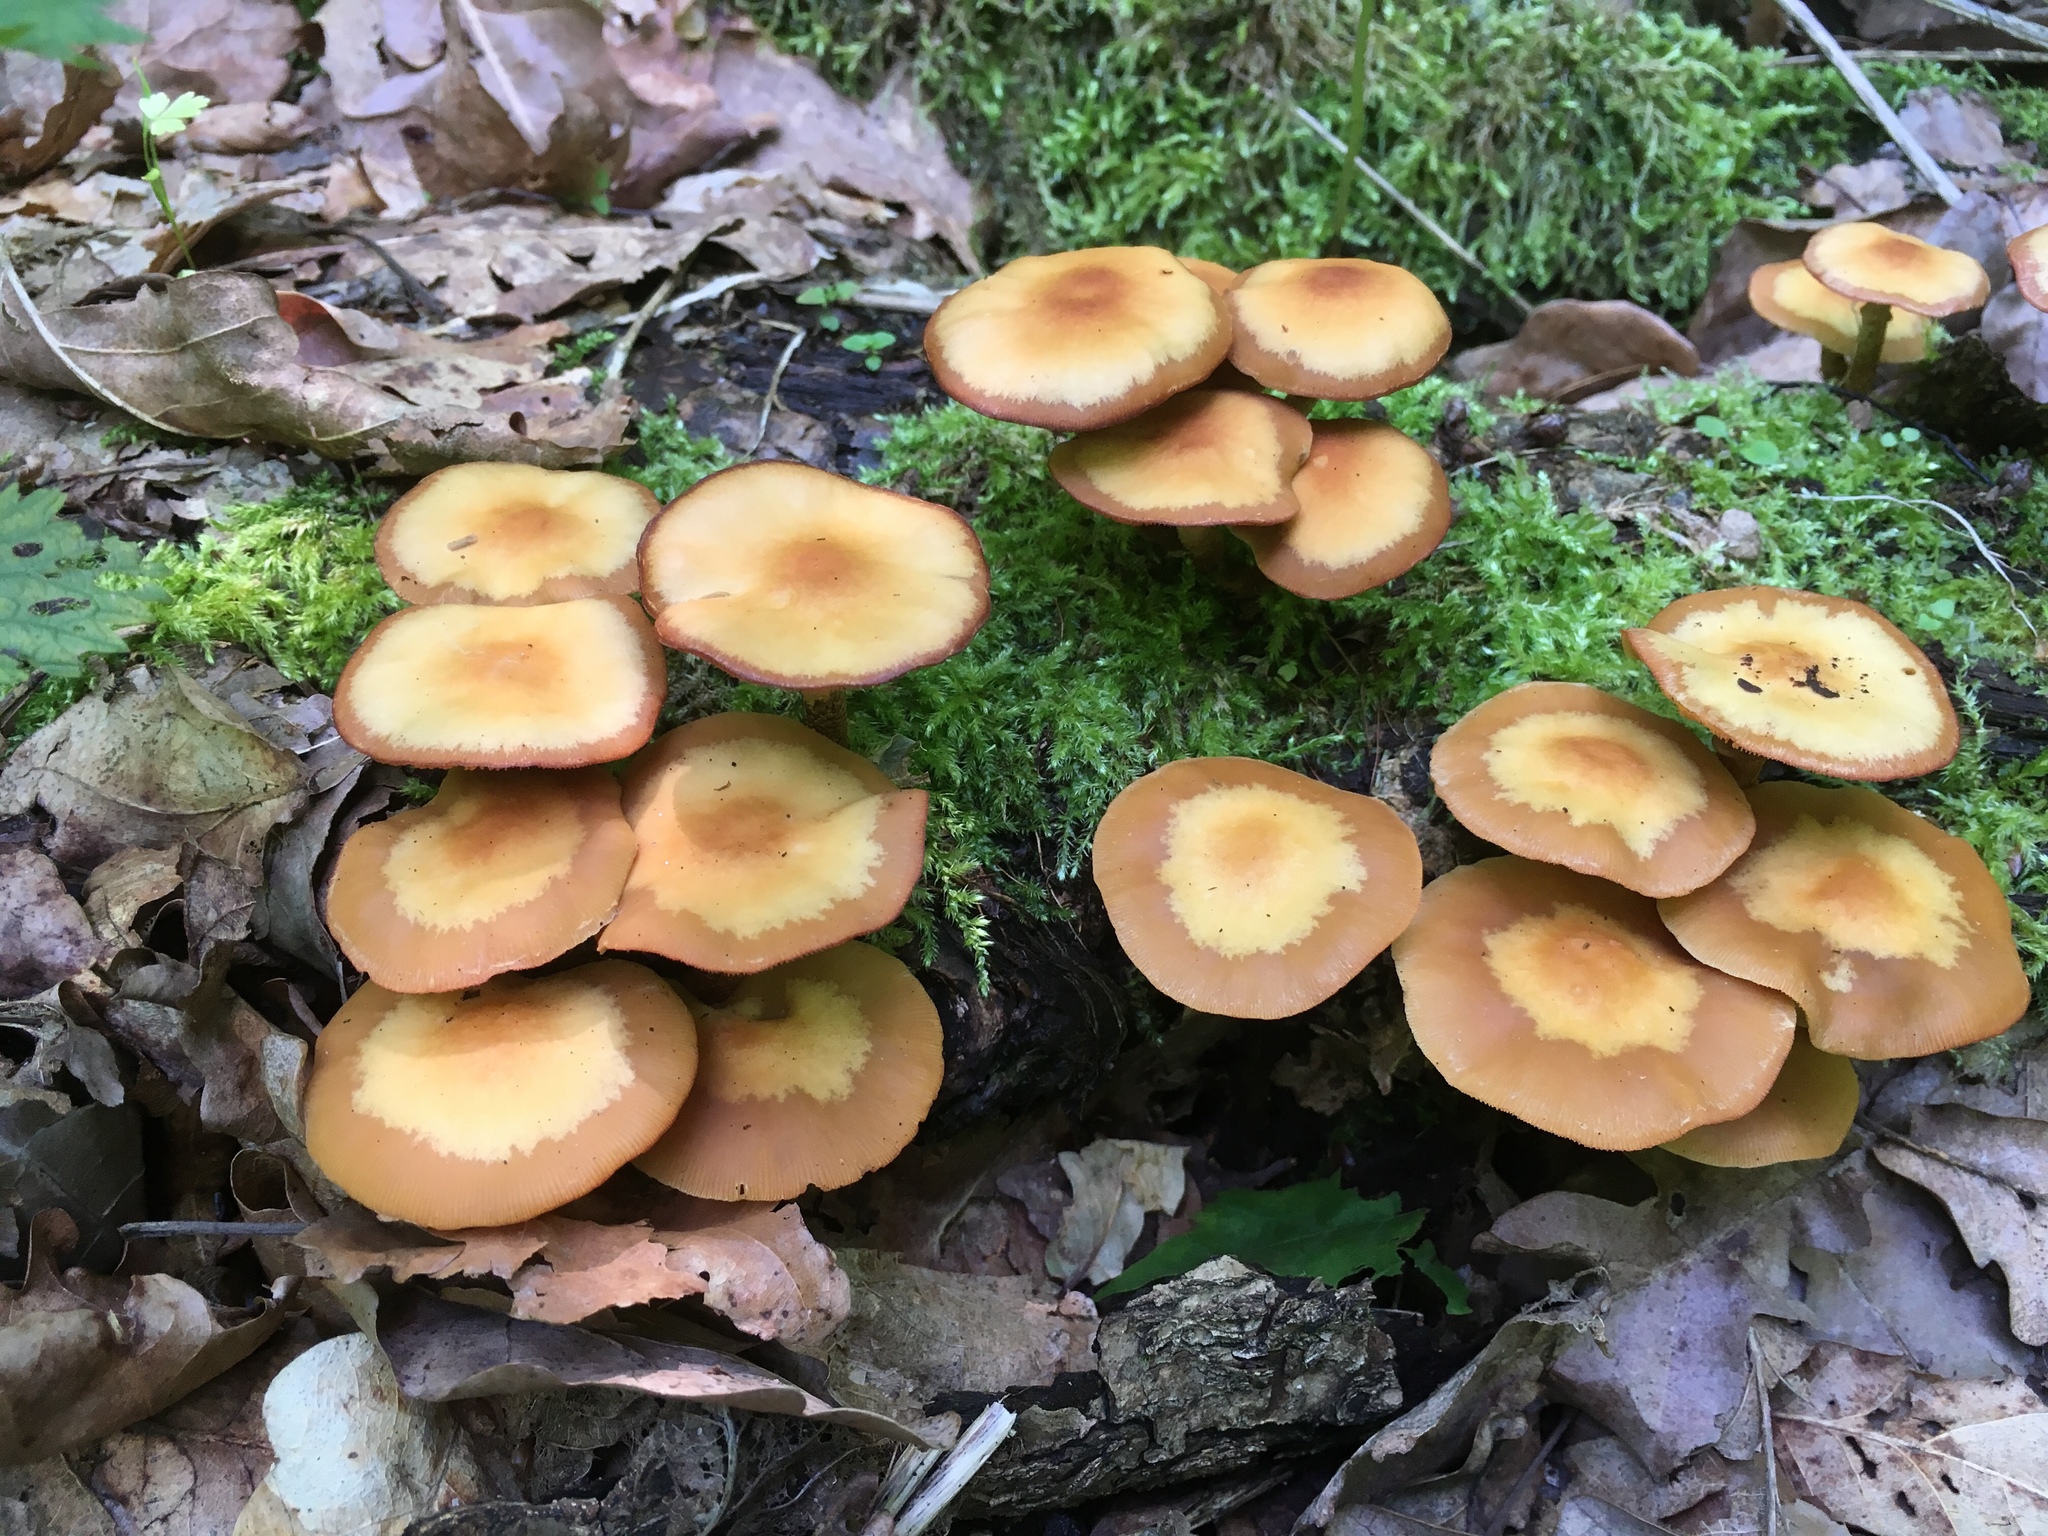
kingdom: Fungi
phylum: Basidiomycota
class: Agaricomycetes
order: Agaricales
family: Strophariaceae
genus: Kuehneromyces
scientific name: Kuehneromyces mutabilis
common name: Sheathed woodtuft
